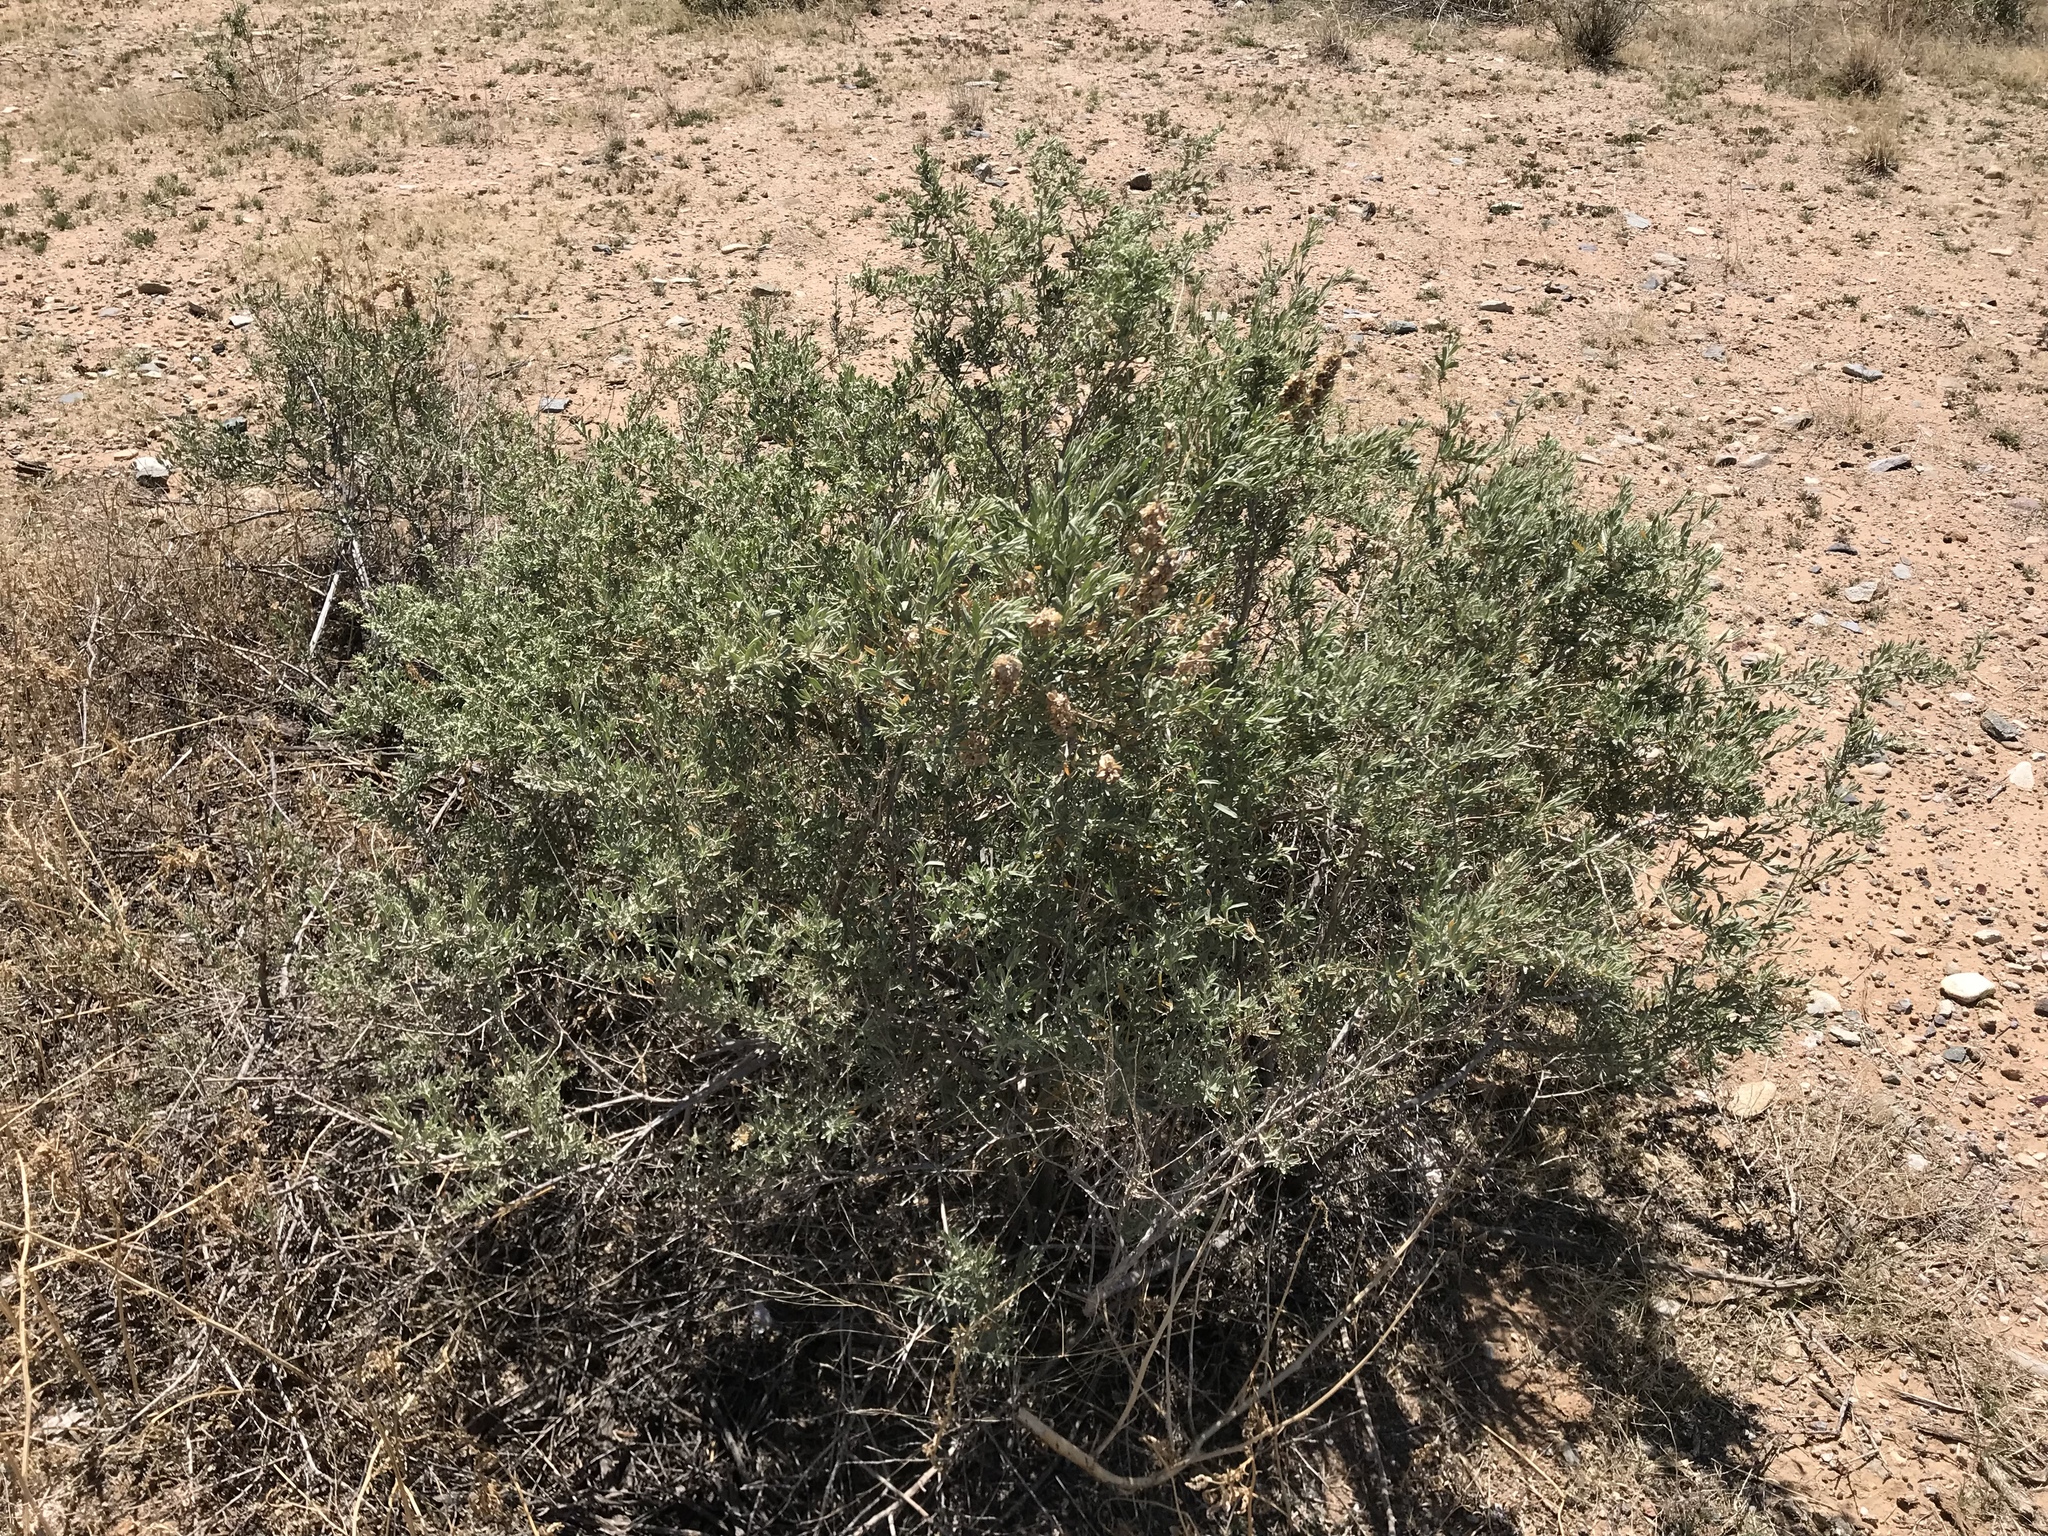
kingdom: Plantae
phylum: Tracheophyta
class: Magnoliopsida
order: Caryophyllales
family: Amaranthaceae
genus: Atriplex
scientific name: Atriplex canescens
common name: Four-wing saltbush
